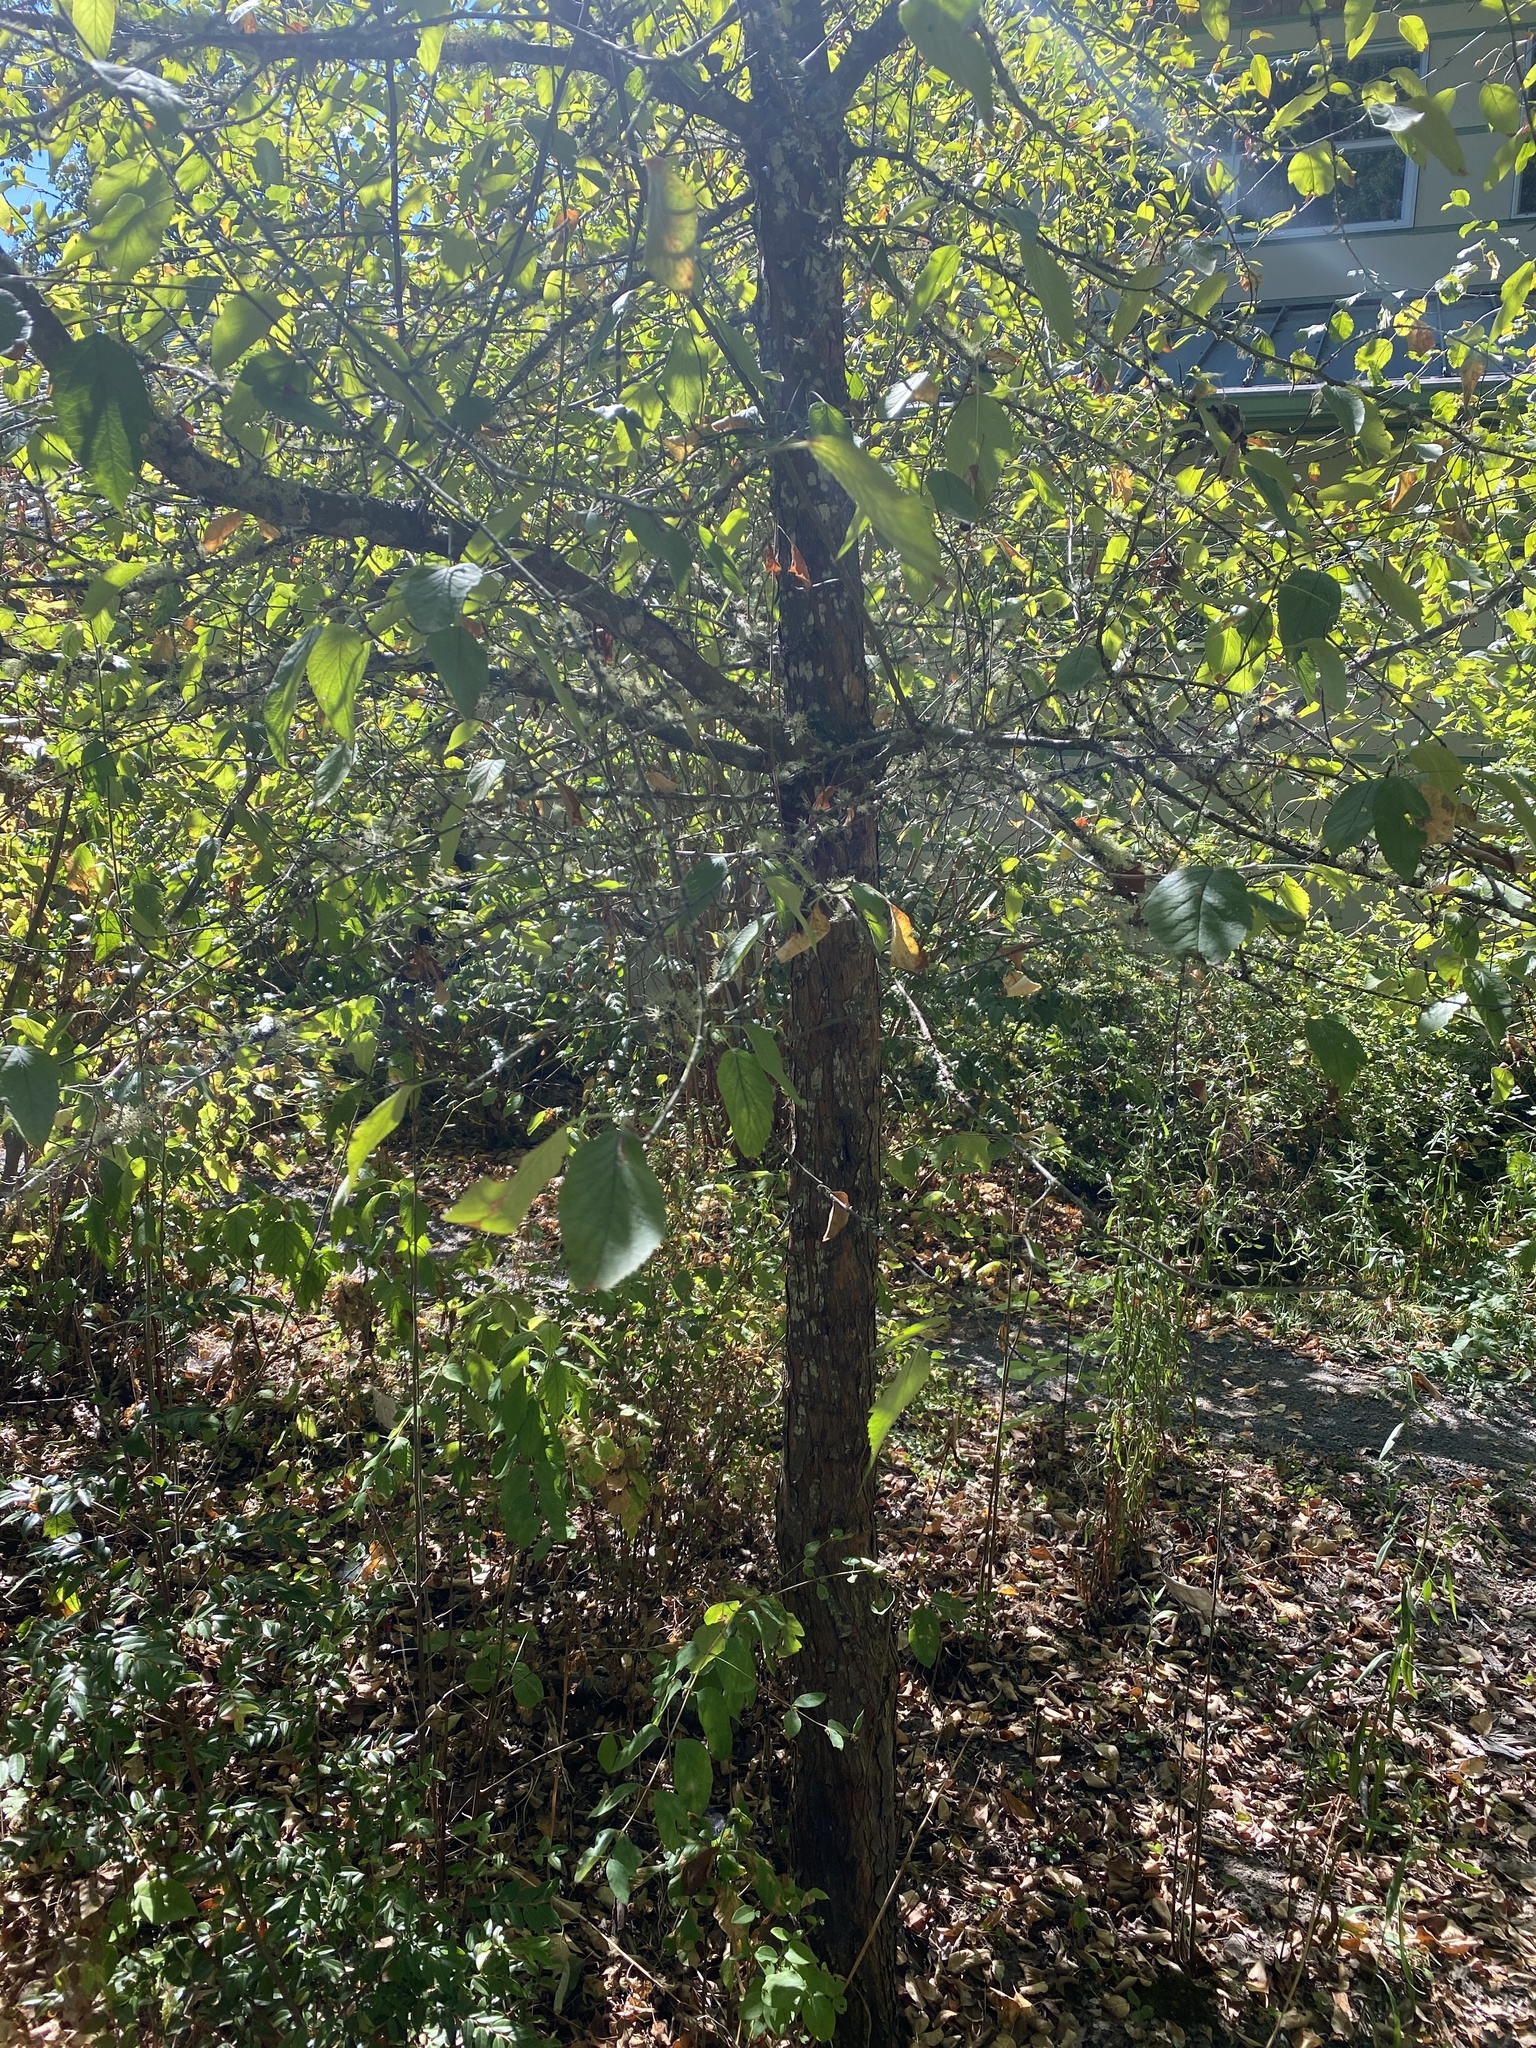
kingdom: Plantae
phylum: Tracheophyta
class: Magnoliopsida
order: Rosales
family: Rosaceae
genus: Malus
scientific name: Malus fusca
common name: Oregon crab apple
